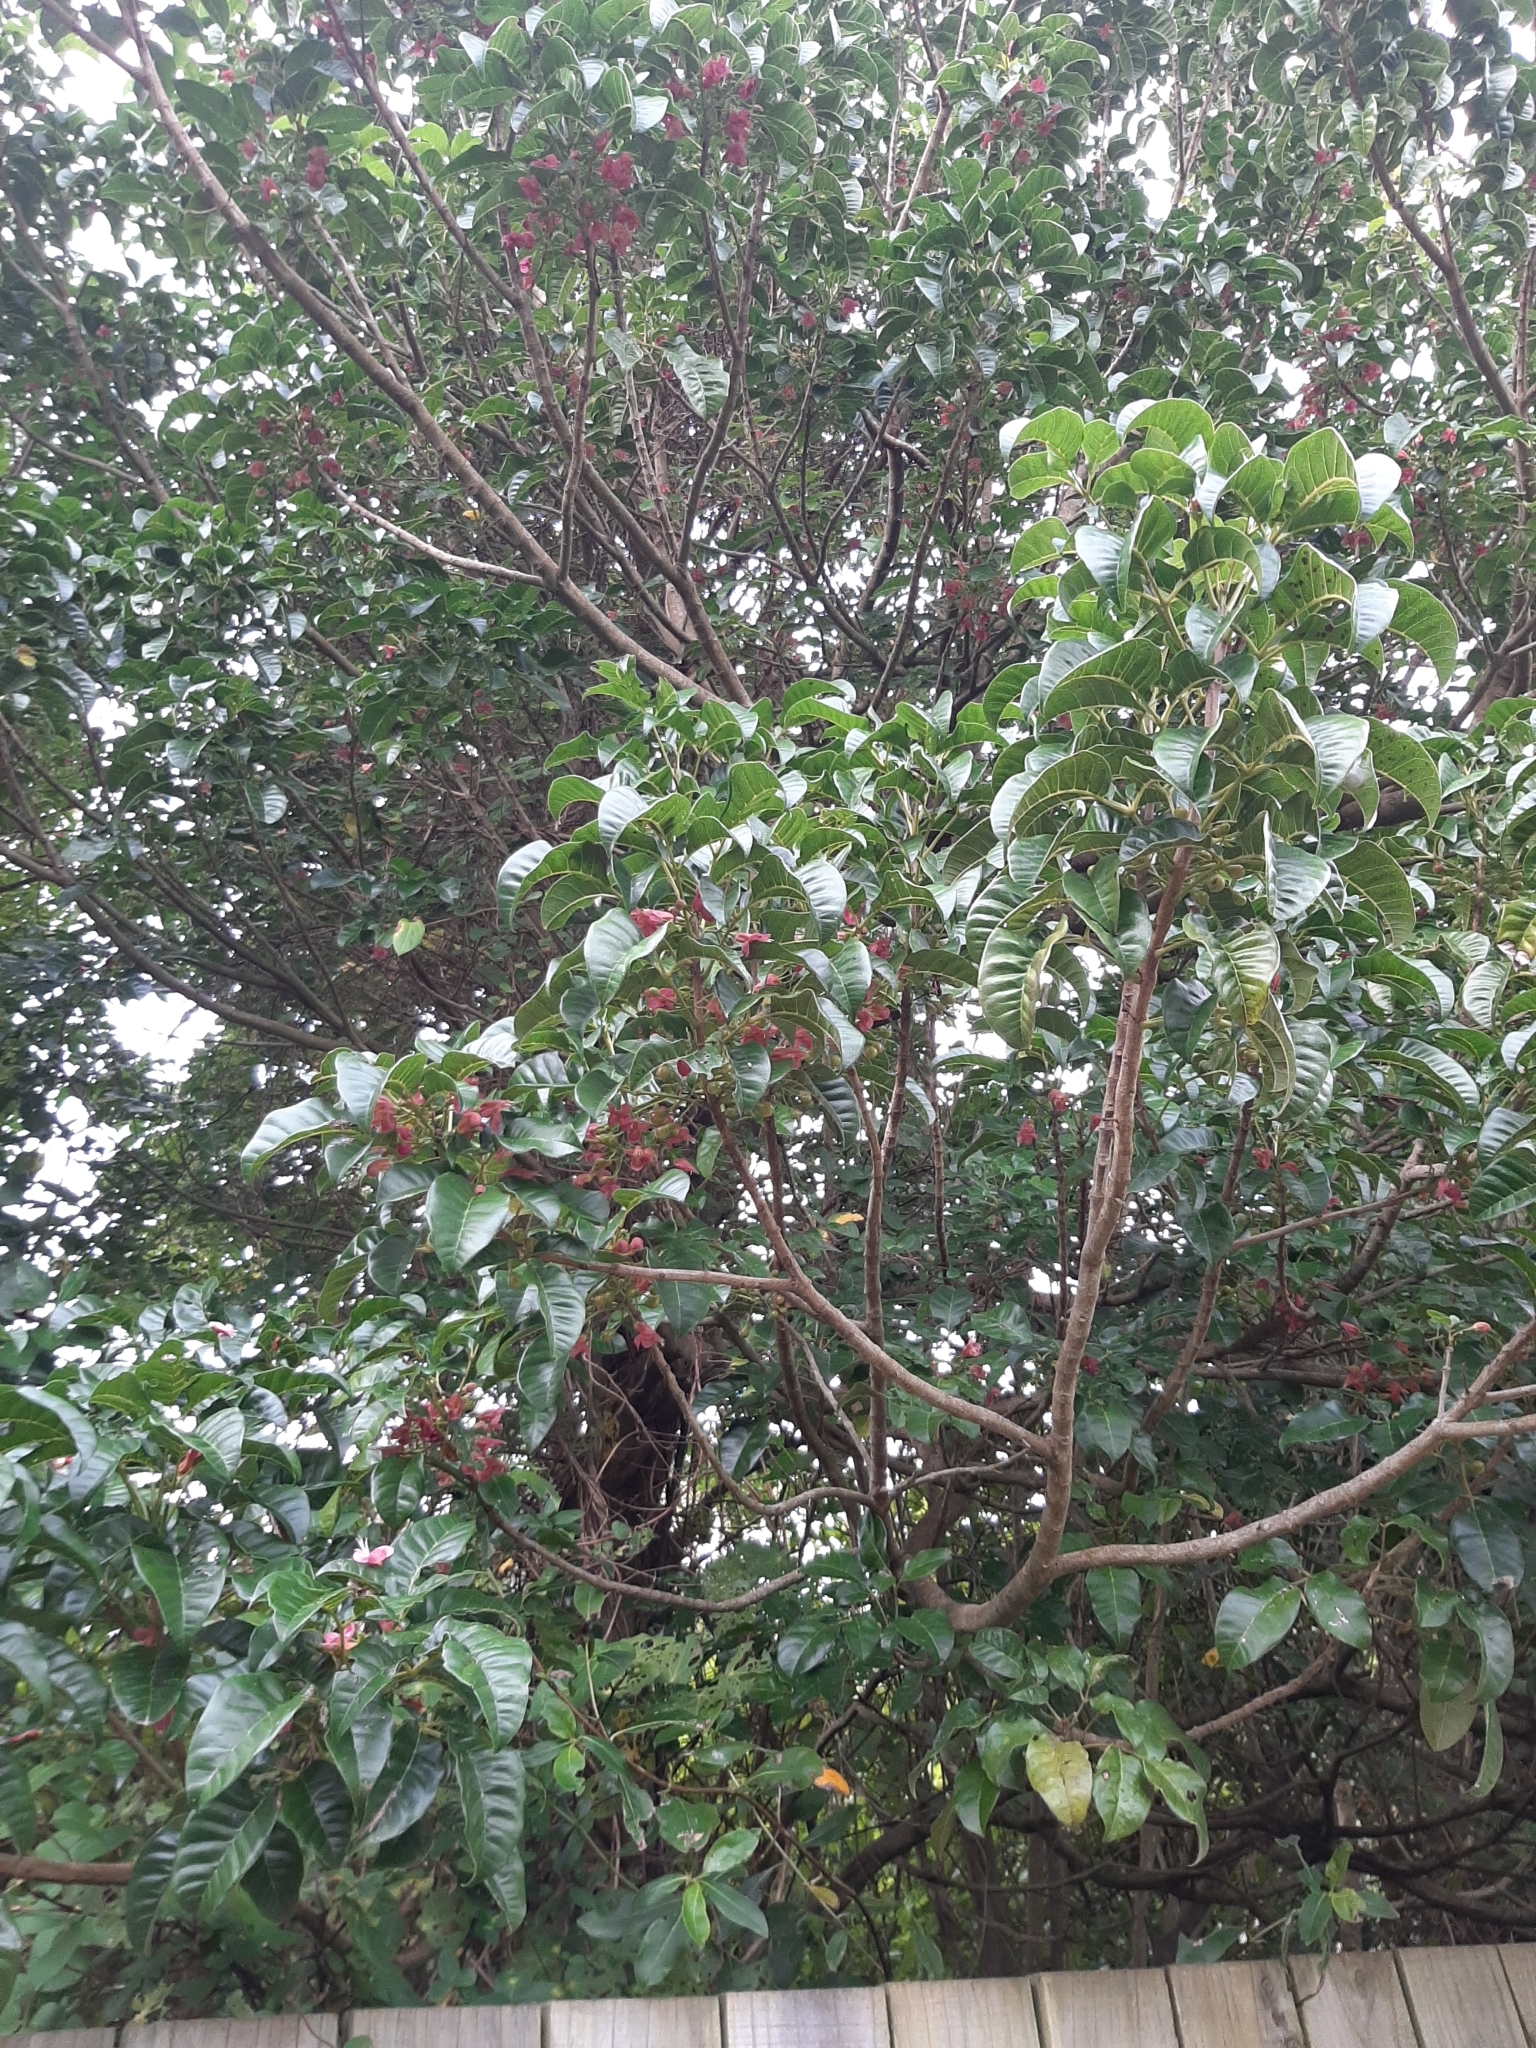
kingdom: Plantae
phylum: Tracheophyta
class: Magnoliopsida
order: Lamiales
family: Lamiaceae
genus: Vitex
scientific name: Vitex lucens
